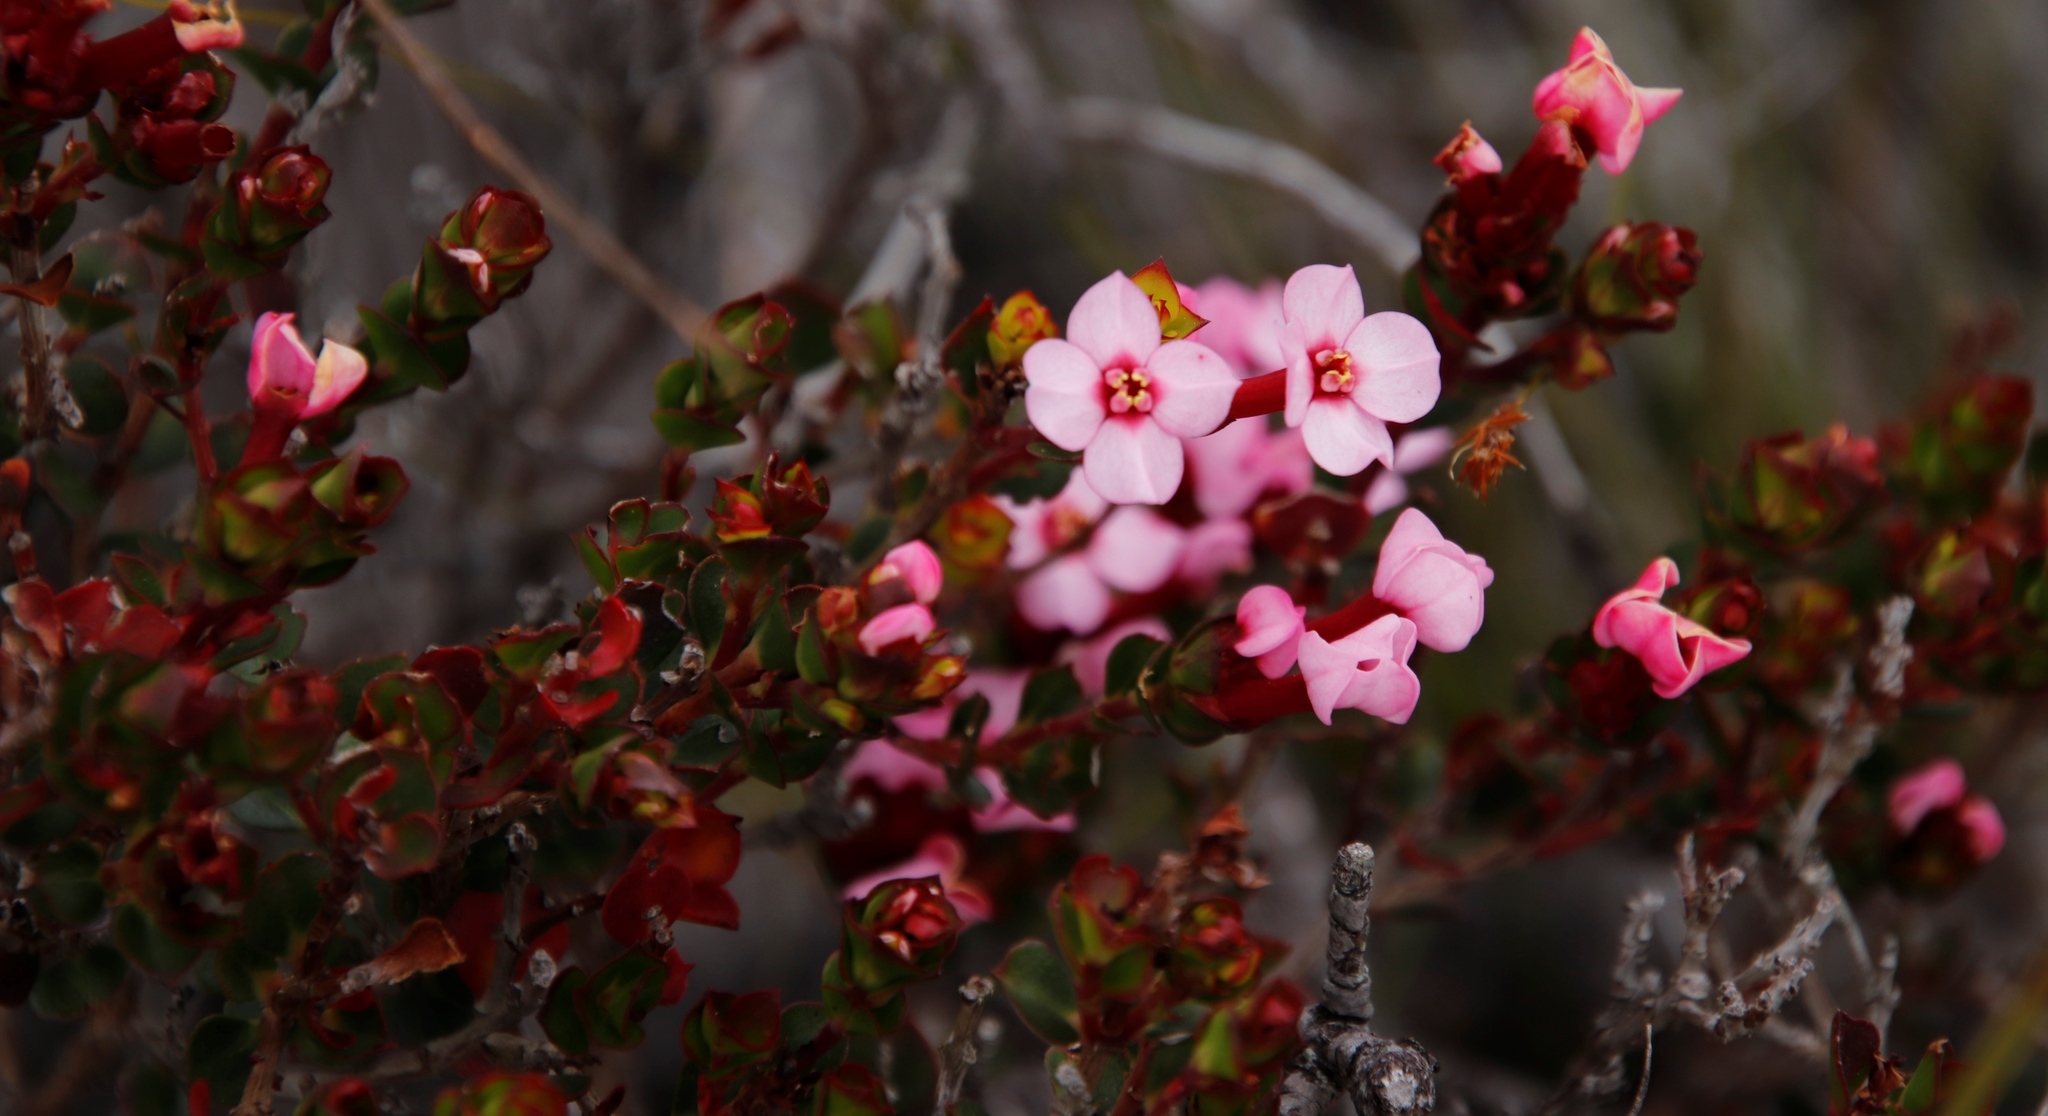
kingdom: Plantae
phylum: Tracheophyta
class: Magnoliopsida
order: Myrtales
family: Penaeaceae
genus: Brachysiphon
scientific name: Brachysiphon acutus
